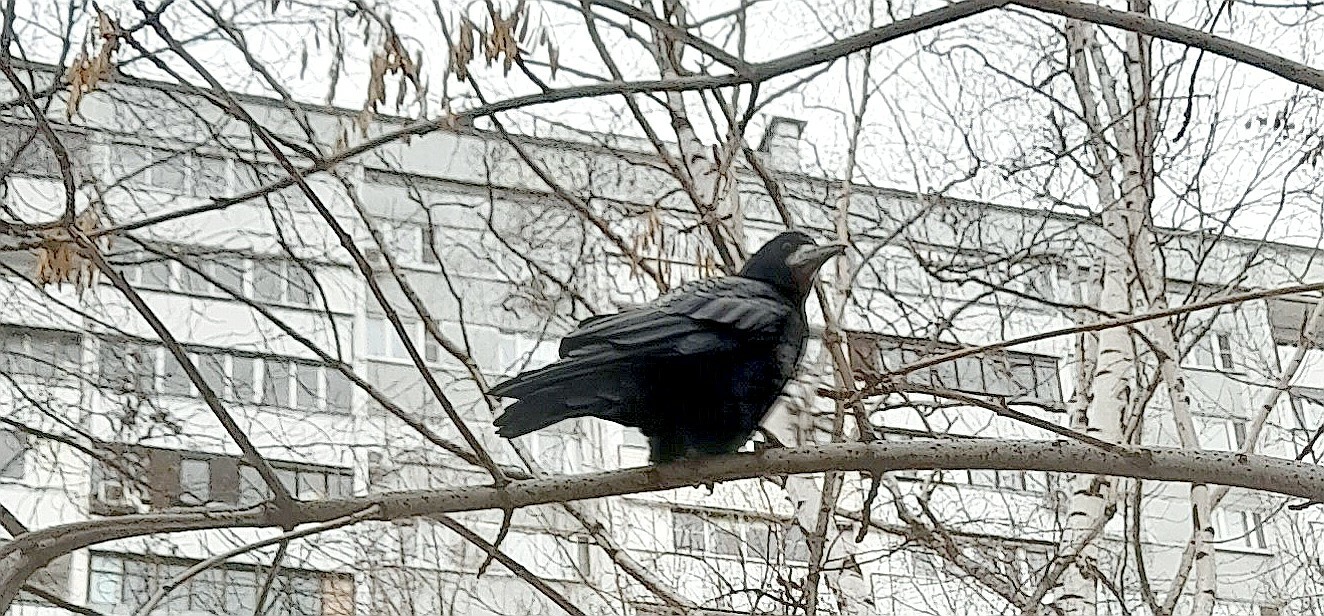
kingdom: Animalia
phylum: Chordata
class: Aves
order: Passeriformes
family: Corvidae
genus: Corvus
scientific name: Corvus frugilegus
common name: Rook
